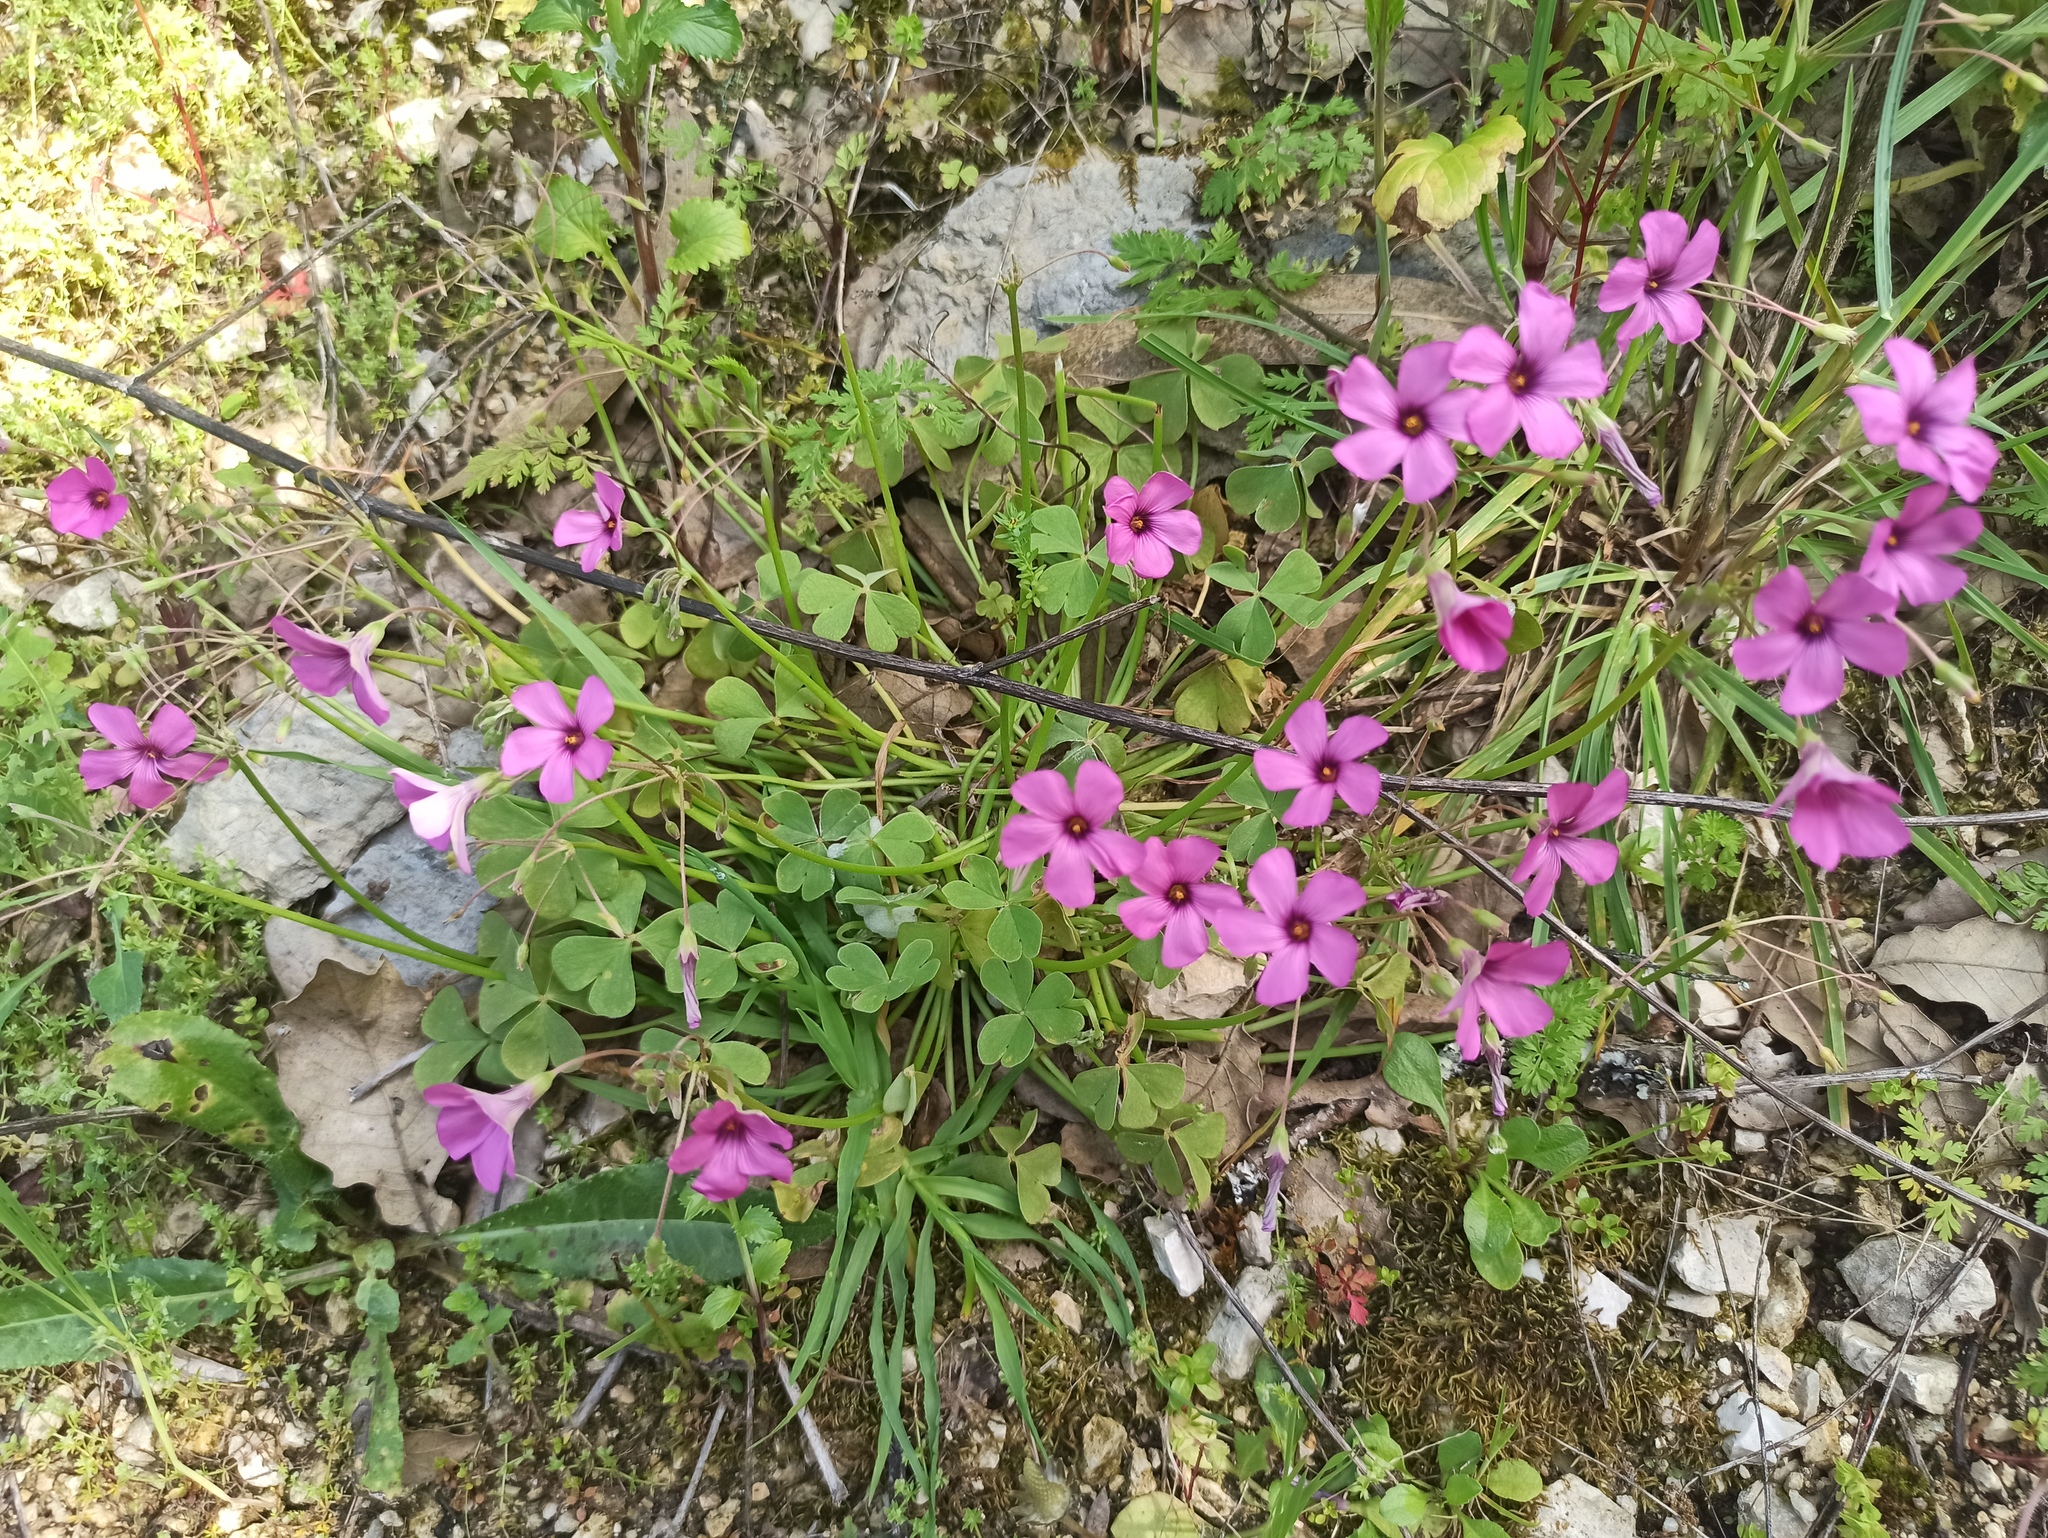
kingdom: Plantae
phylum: Tracheophyta
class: Magnoliopsida
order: Oxalidales
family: Oxalidaceae
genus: Oxalis
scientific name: Oxalis articulata
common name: Pink-sorrel
